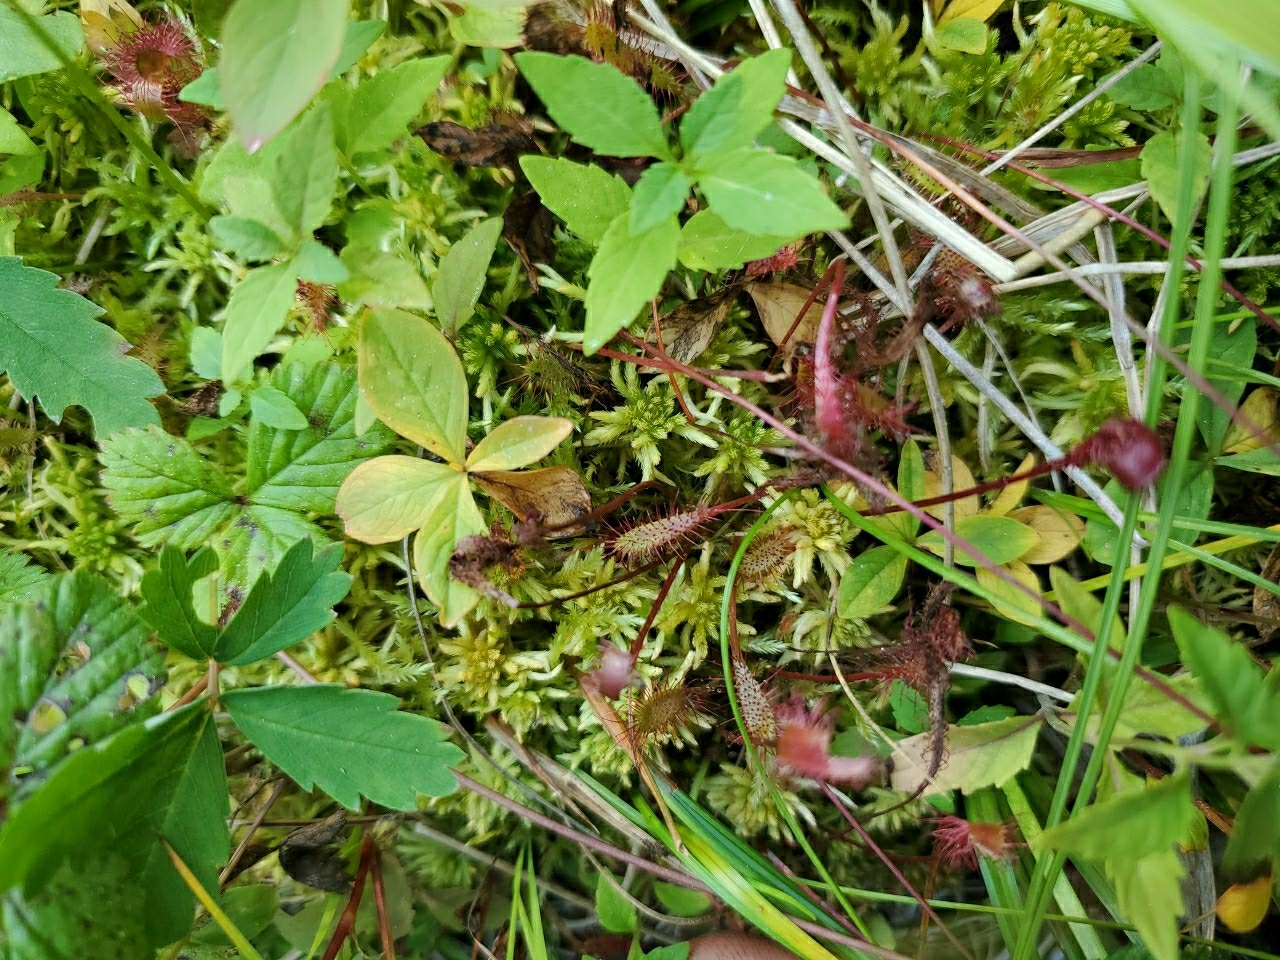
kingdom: Plantae
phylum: Tracheophyta
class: Magnoliopsida
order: Caryophyllales
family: Droseraceae
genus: Drosera
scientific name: Drosera anglica
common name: Great sundew
